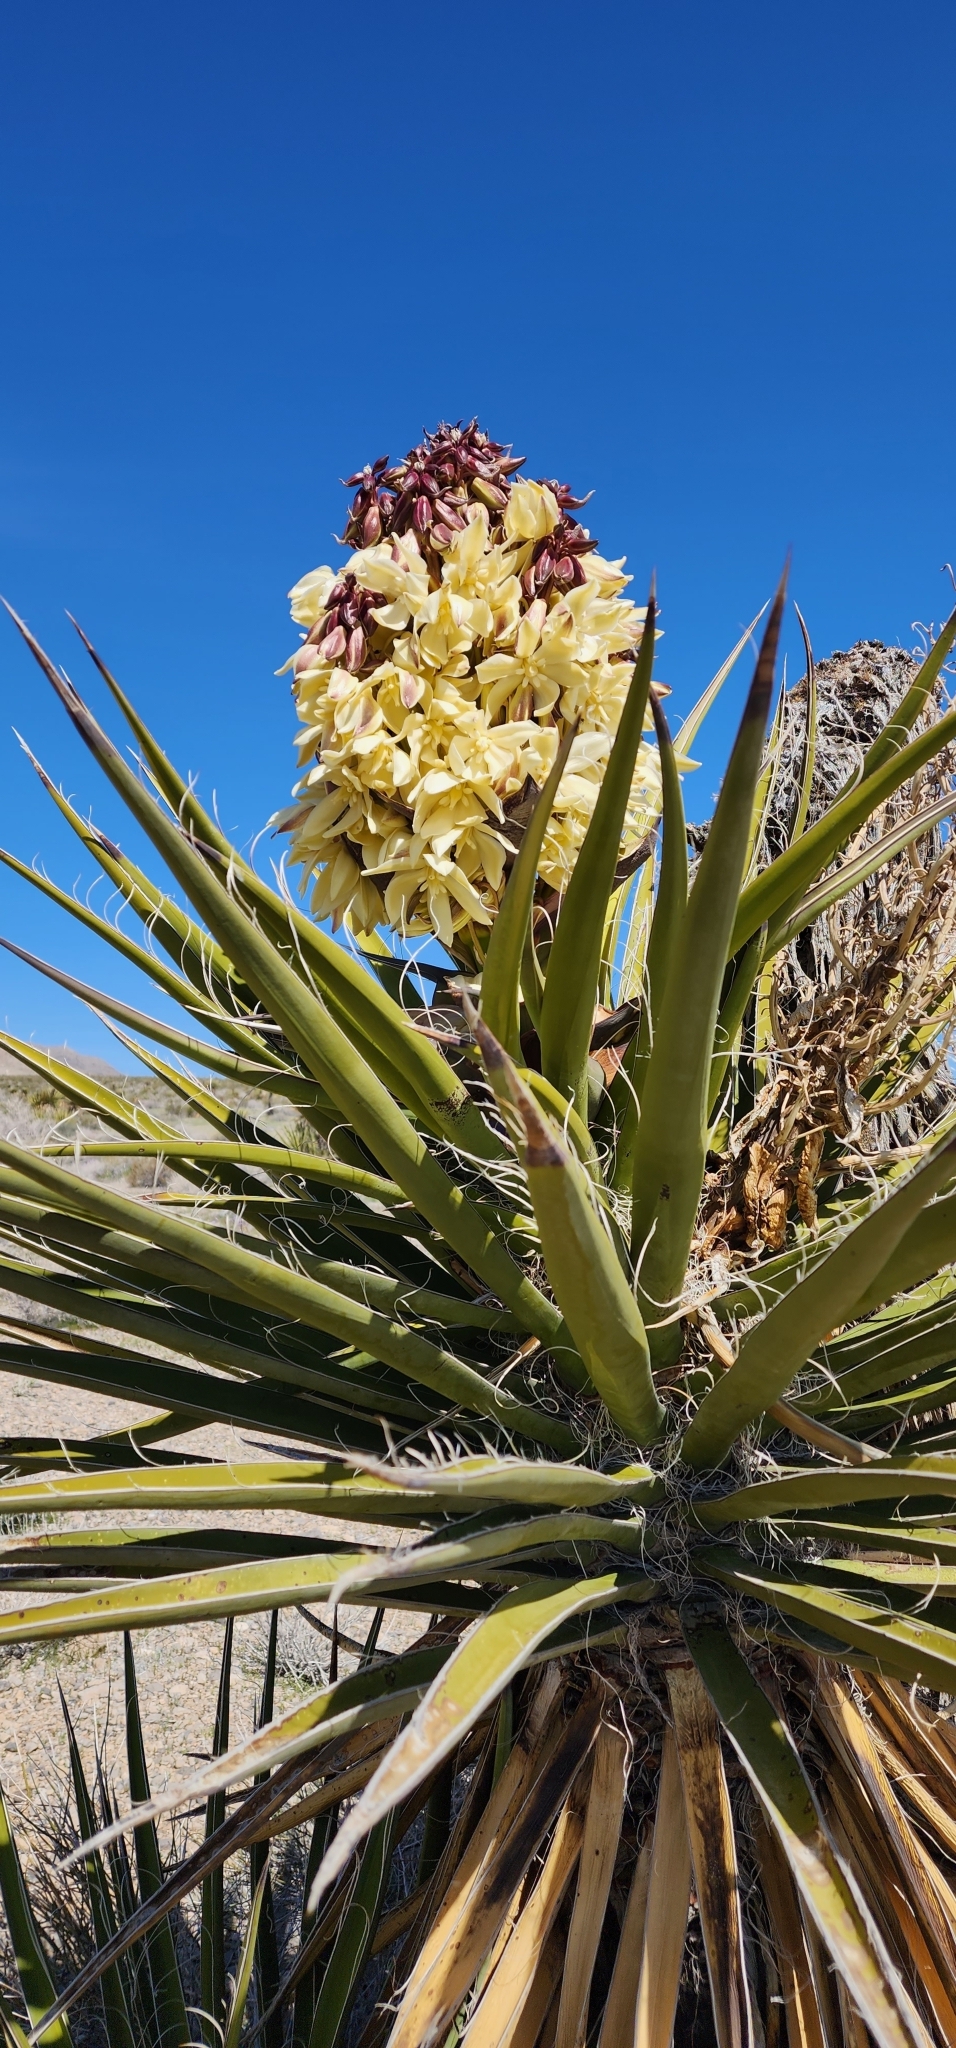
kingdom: Plantae
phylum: Tracheophyta
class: Liliopsida
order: Asparagales
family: Asparagaceae
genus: Yucca
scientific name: Yucca schidigera
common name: Mojave yucca
